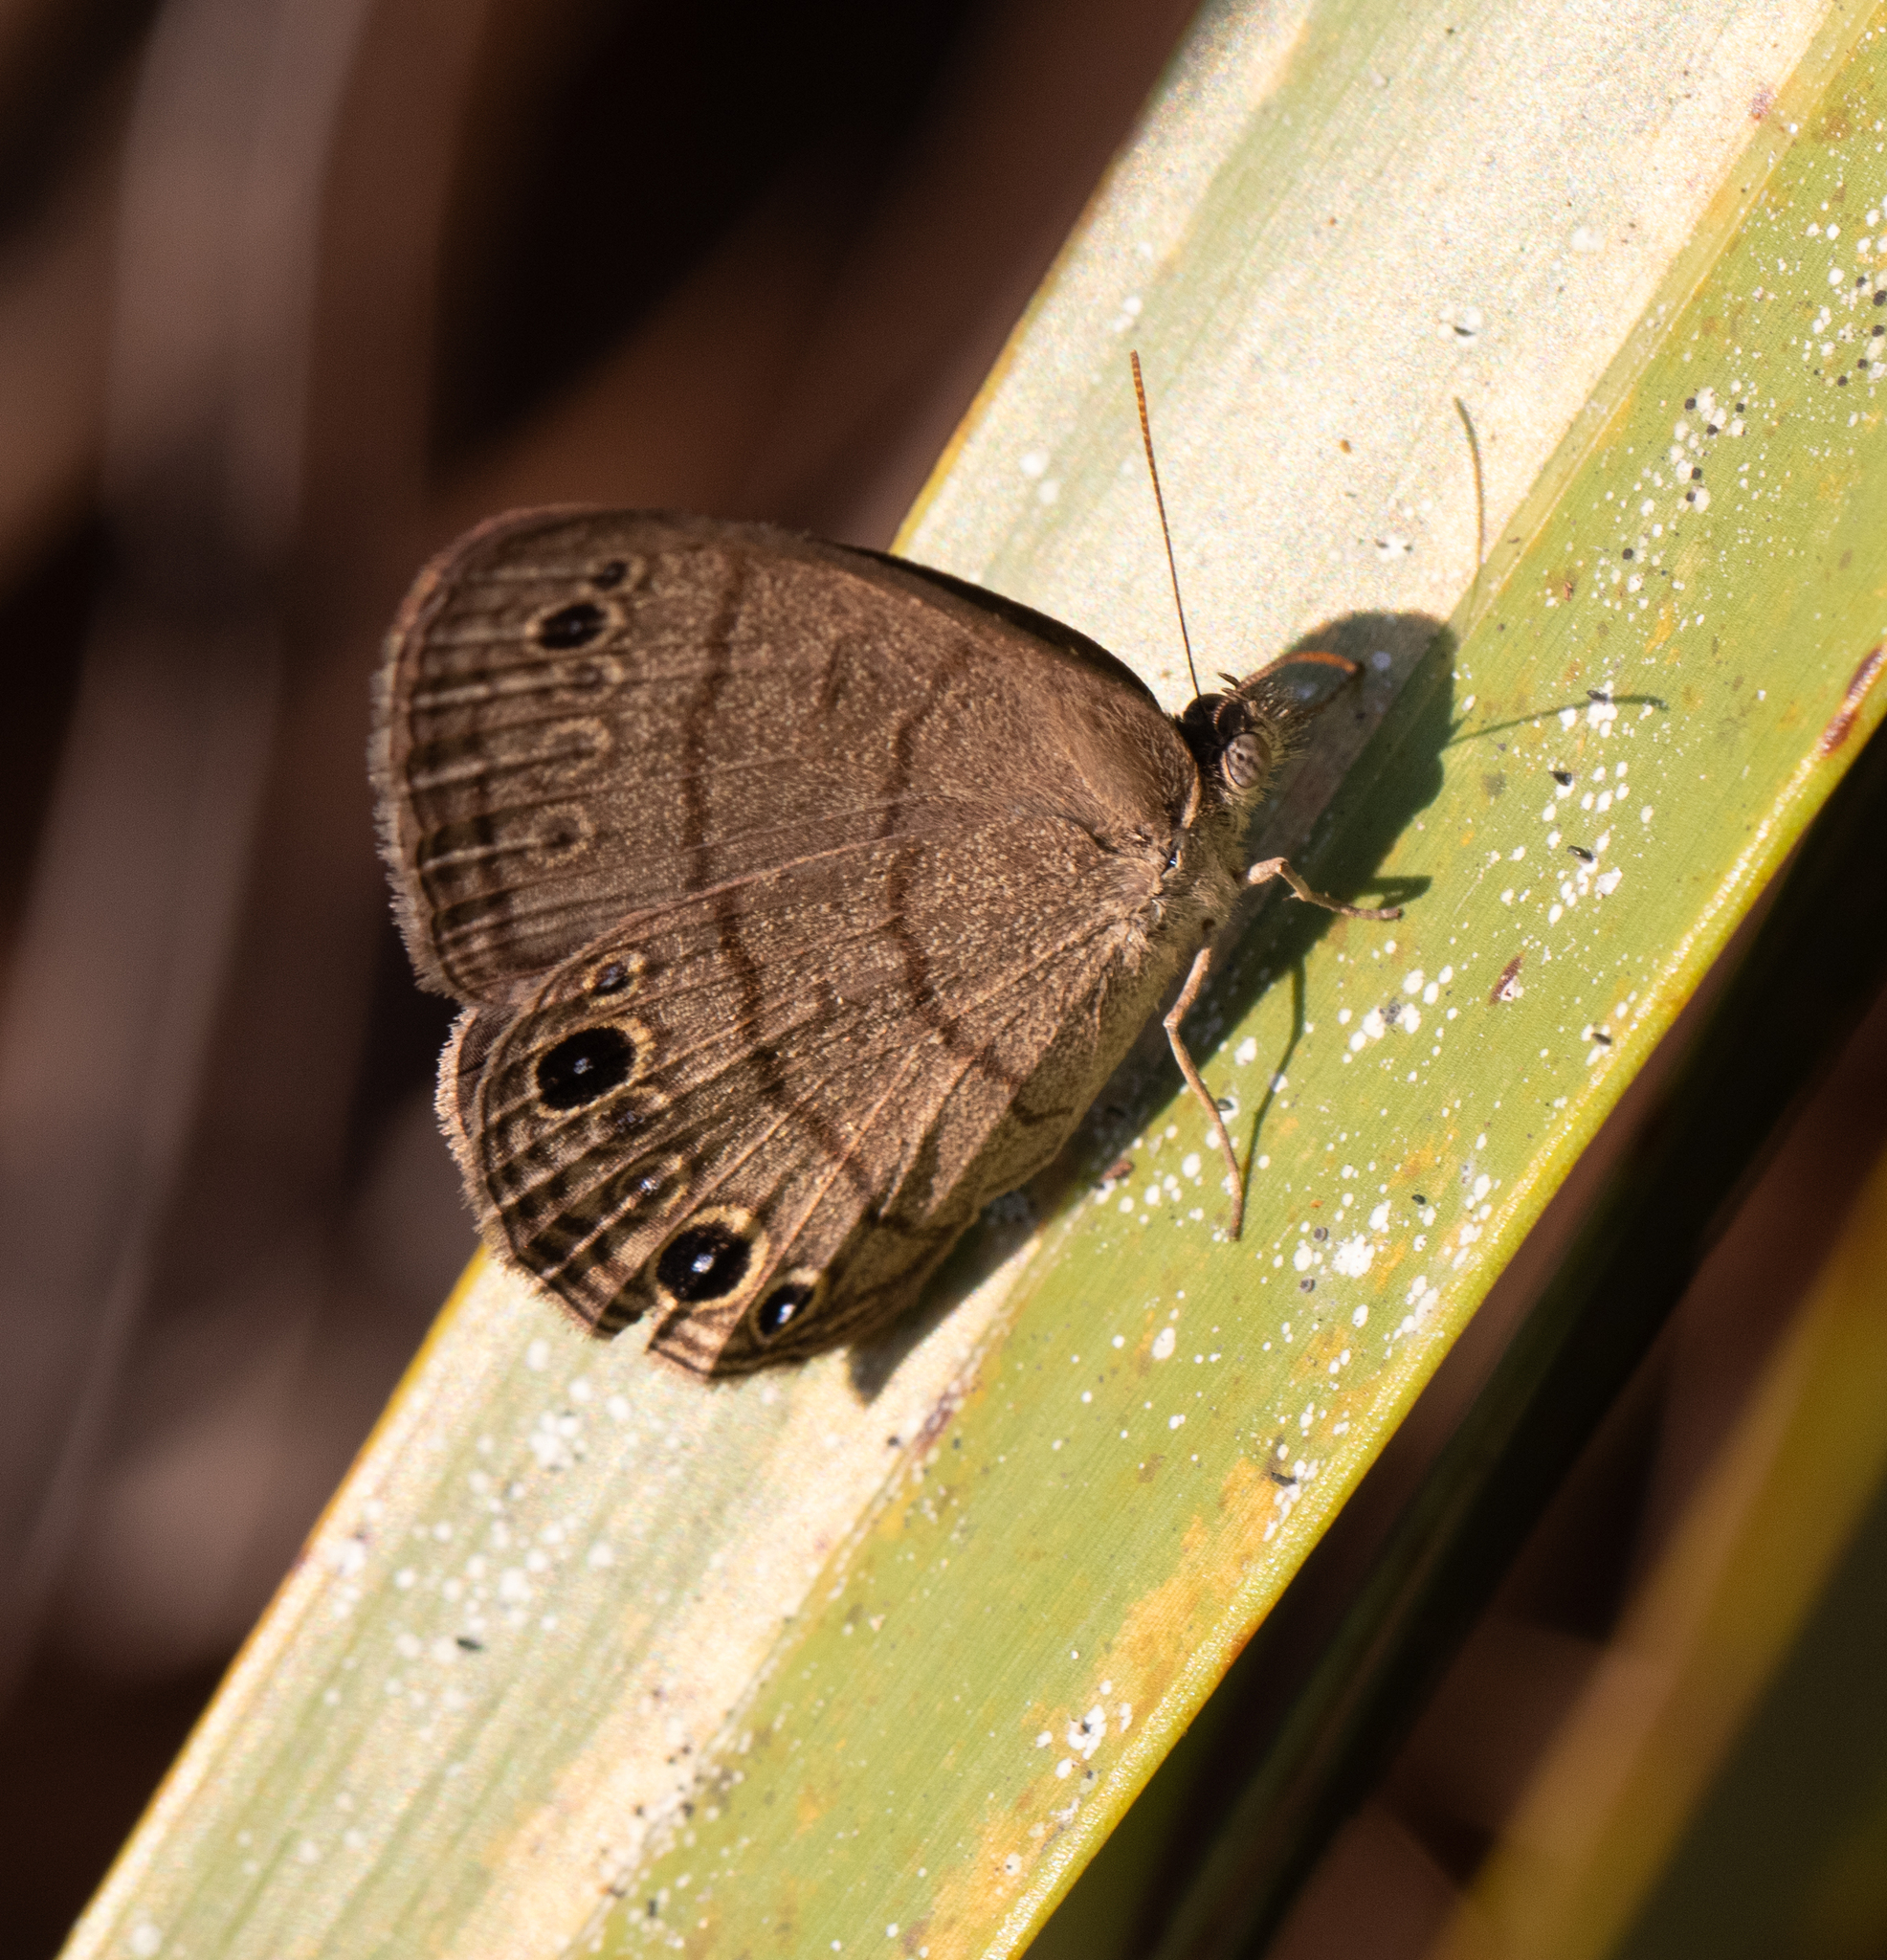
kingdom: Animalia
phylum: Arthropoda
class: Insecta
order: Lepidoptera
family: Nymphalidae
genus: Hermeuptychia
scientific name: Hermeuptychia hermes
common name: Hermes satyr
